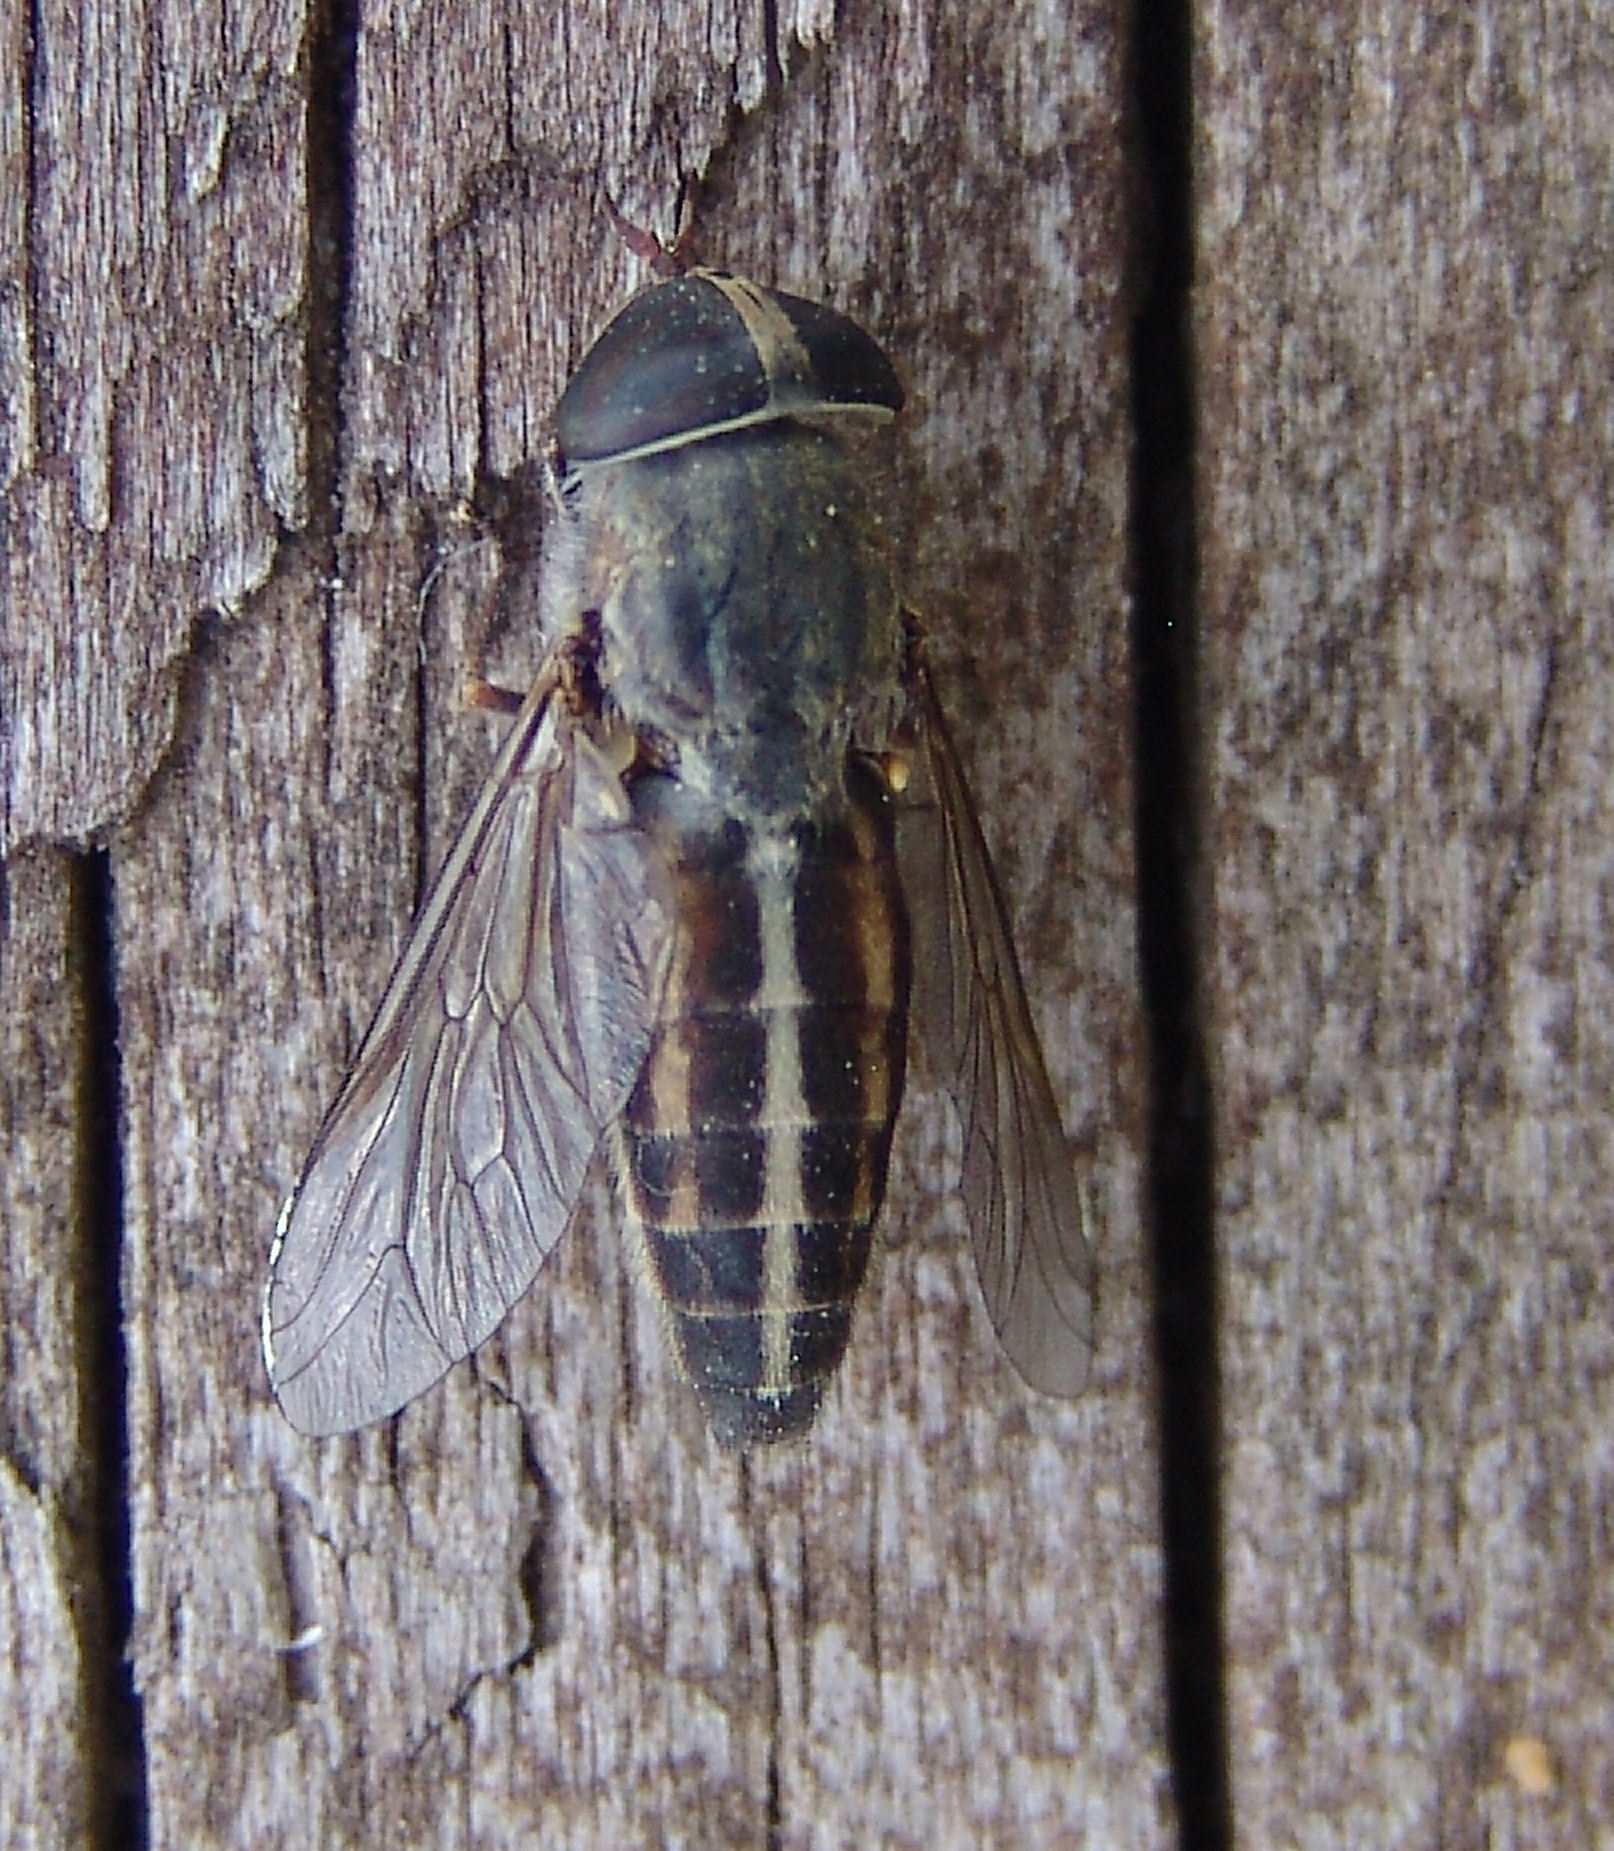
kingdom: Animalia
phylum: Arthropoda
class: Insecta
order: Diptera
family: Tabanidae
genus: Tabanus
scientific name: Tabanus lineola
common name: Striped horse fly
